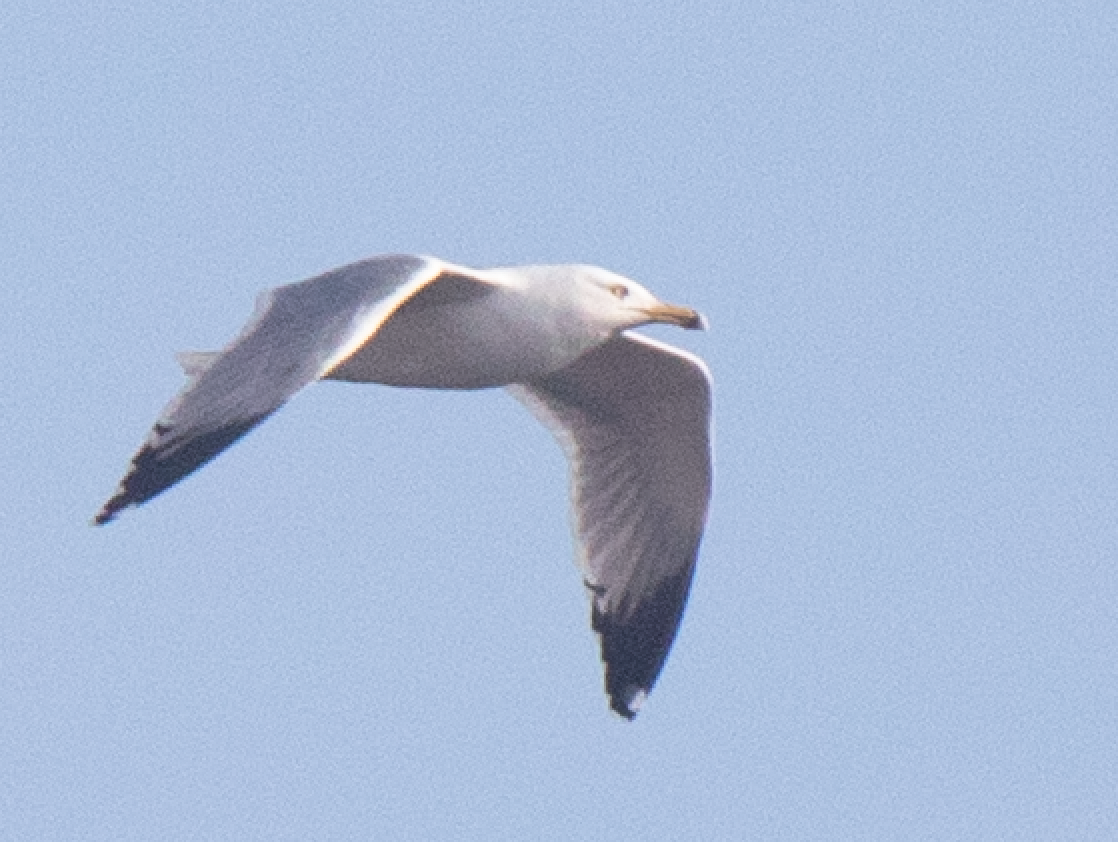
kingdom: Animalia
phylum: Chordata
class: Aves
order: Charadriiformes
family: Laridae
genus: Larus
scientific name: Larus michahellis
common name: Yellow-legged gull
